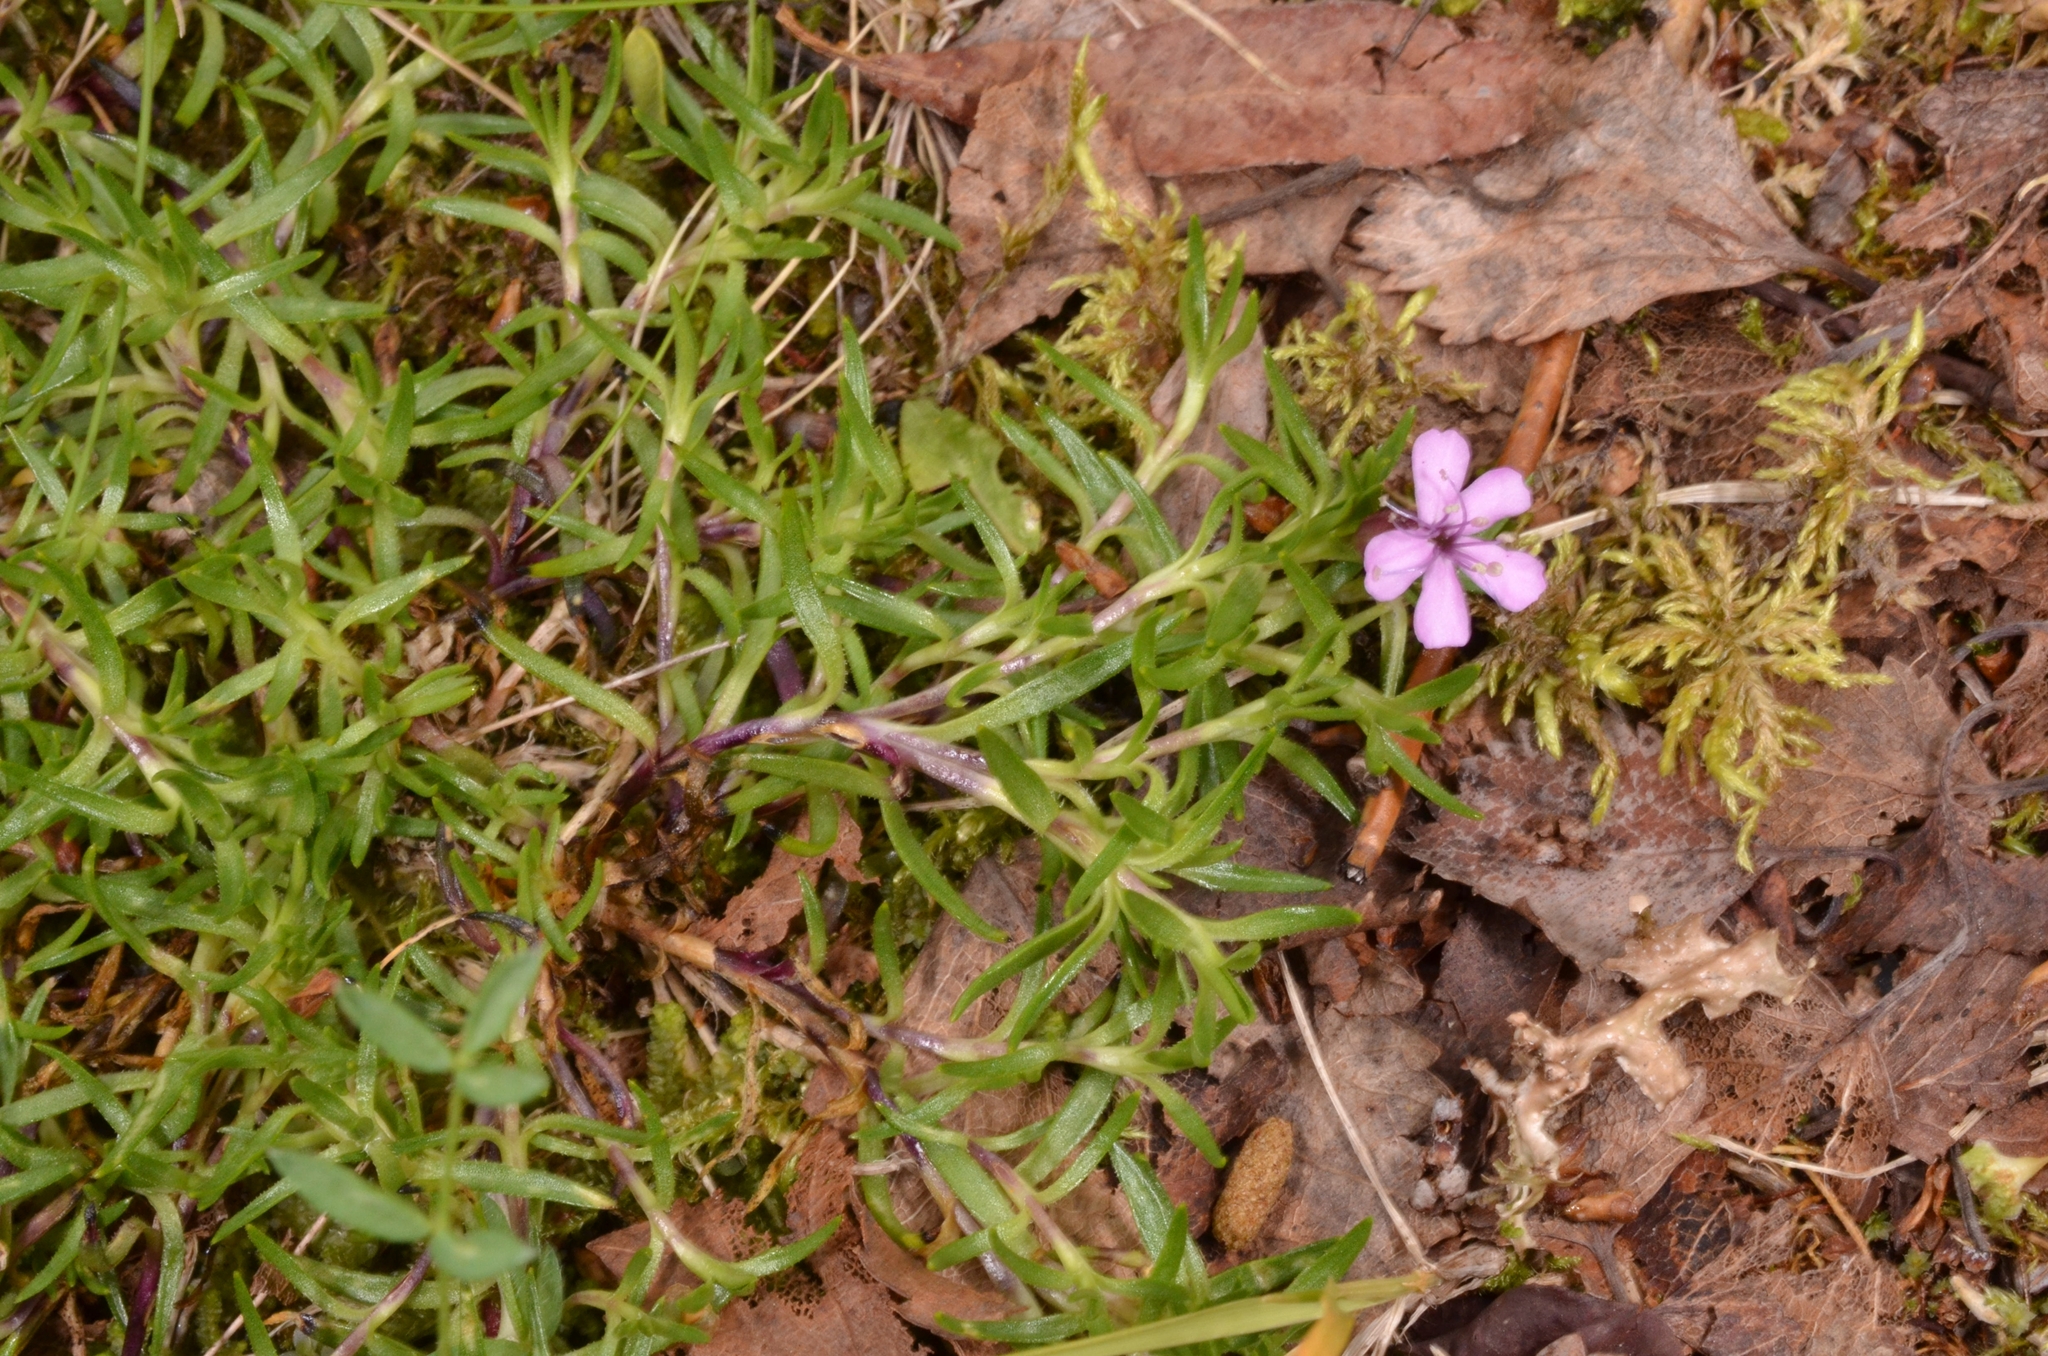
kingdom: Plantae
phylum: Tracheophyta
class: Magnoliopsida
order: Caryophyllales
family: Caryophyllaceae
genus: Silene
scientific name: Silene acaulis
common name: Moss campion
